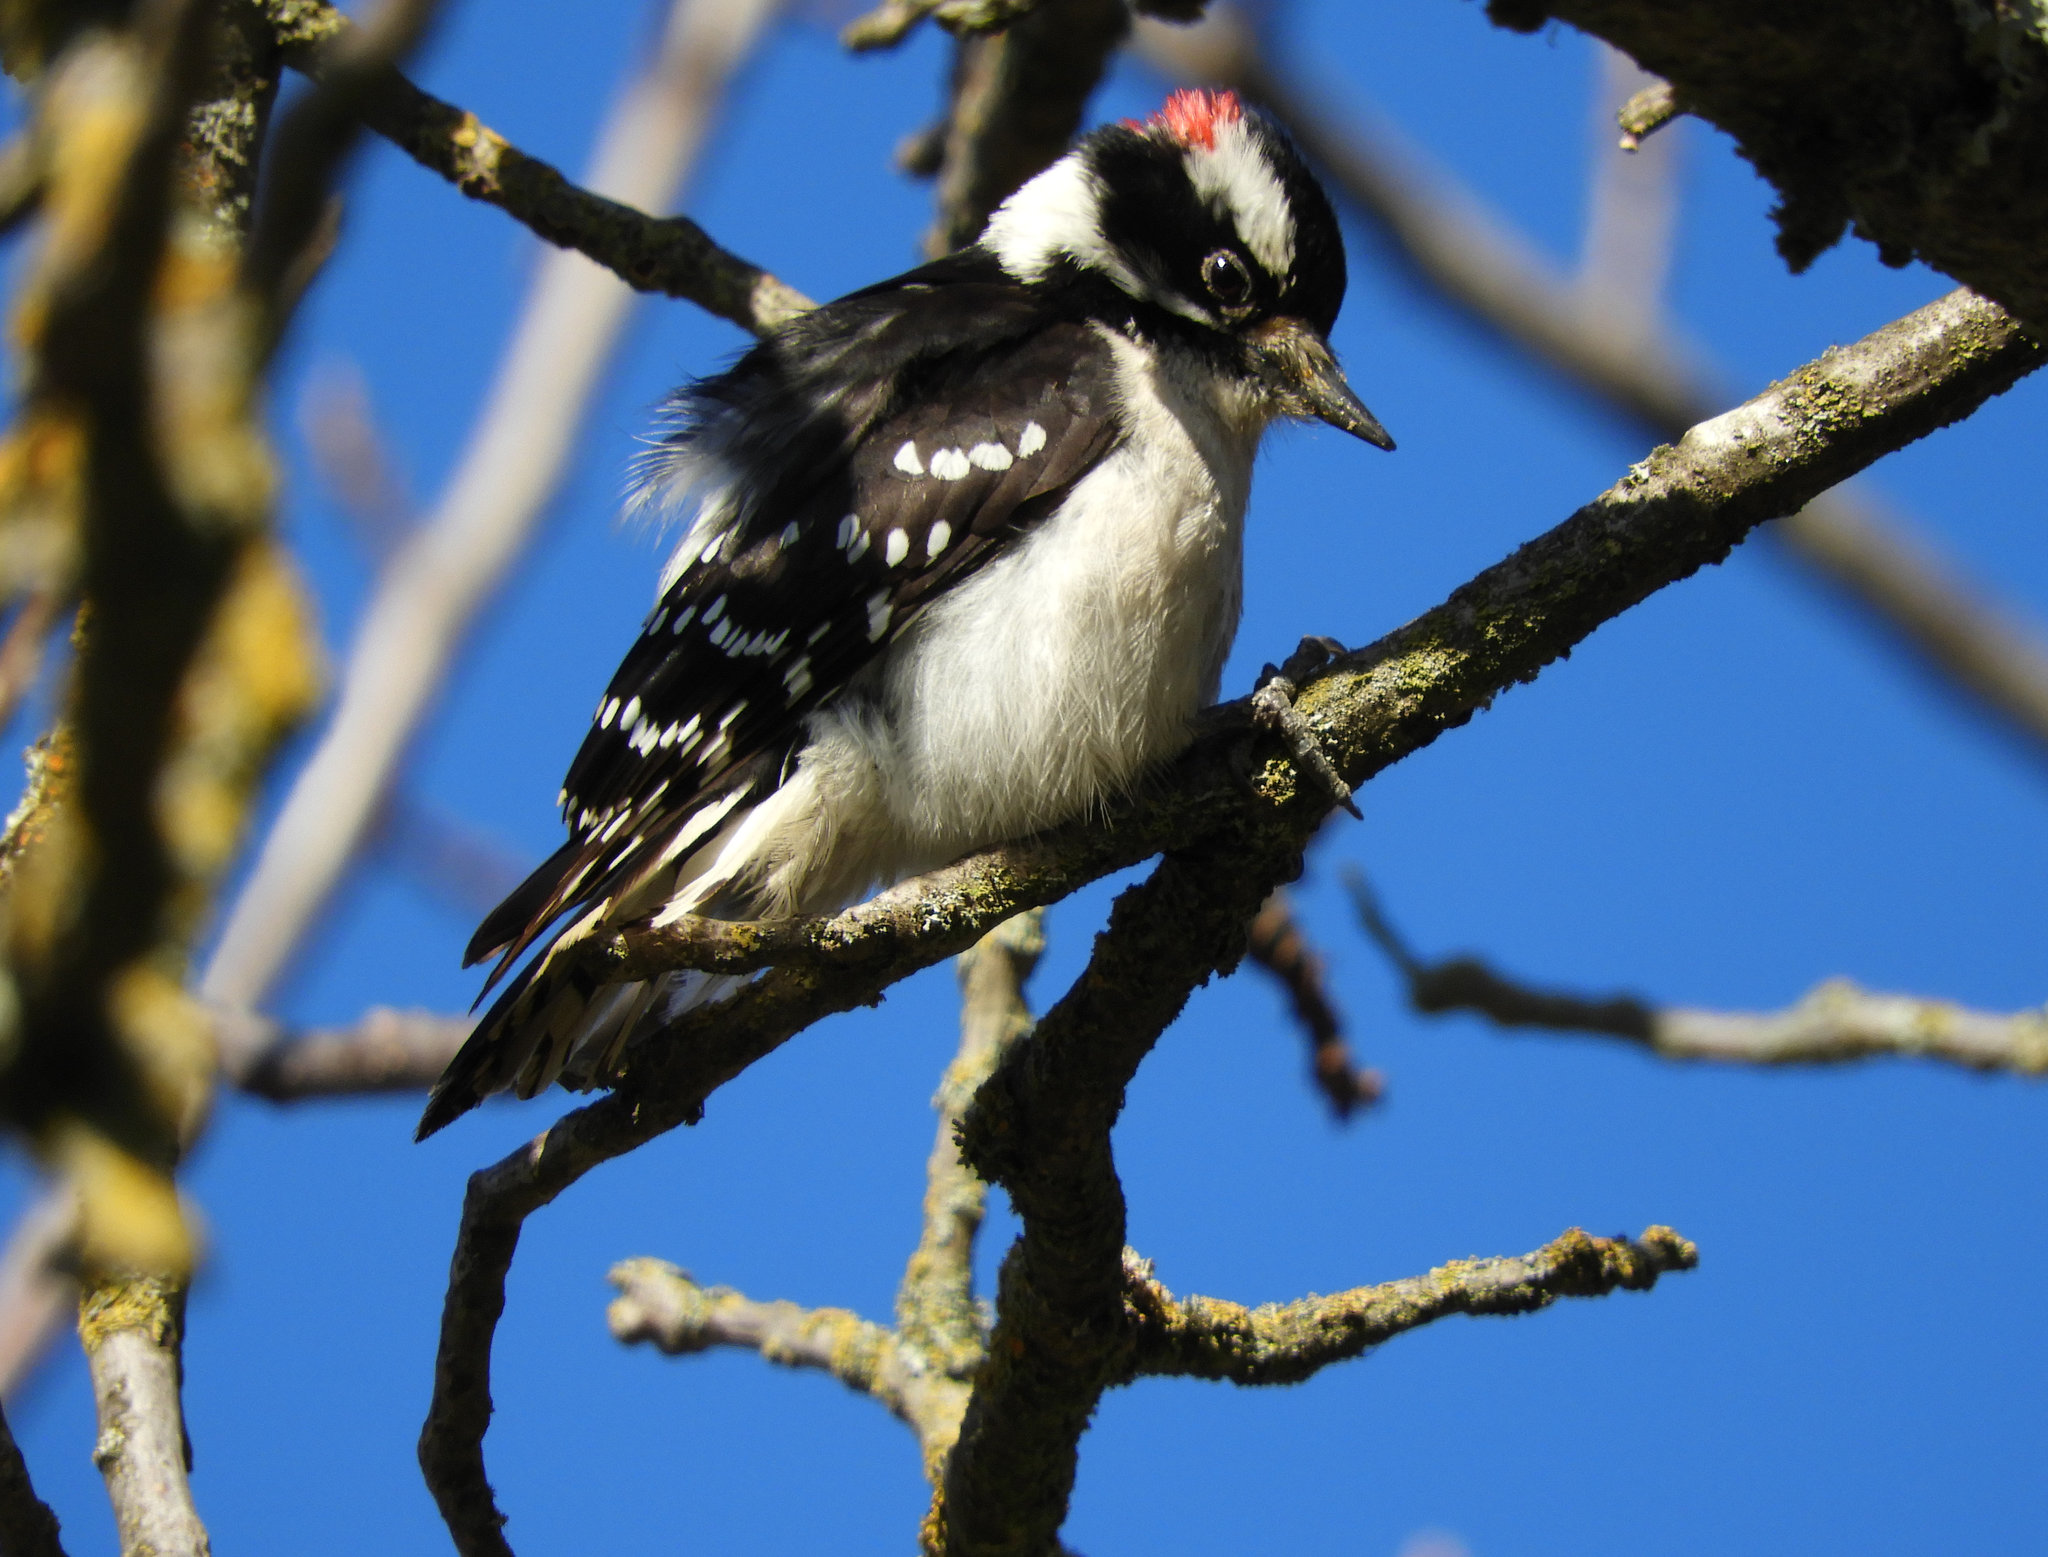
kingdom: Animalia
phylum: Chordata
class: Aves
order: Piciformes
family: Picidae
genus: Dryobates
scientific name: Dryobates pubescens
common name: Downy woodpecker
